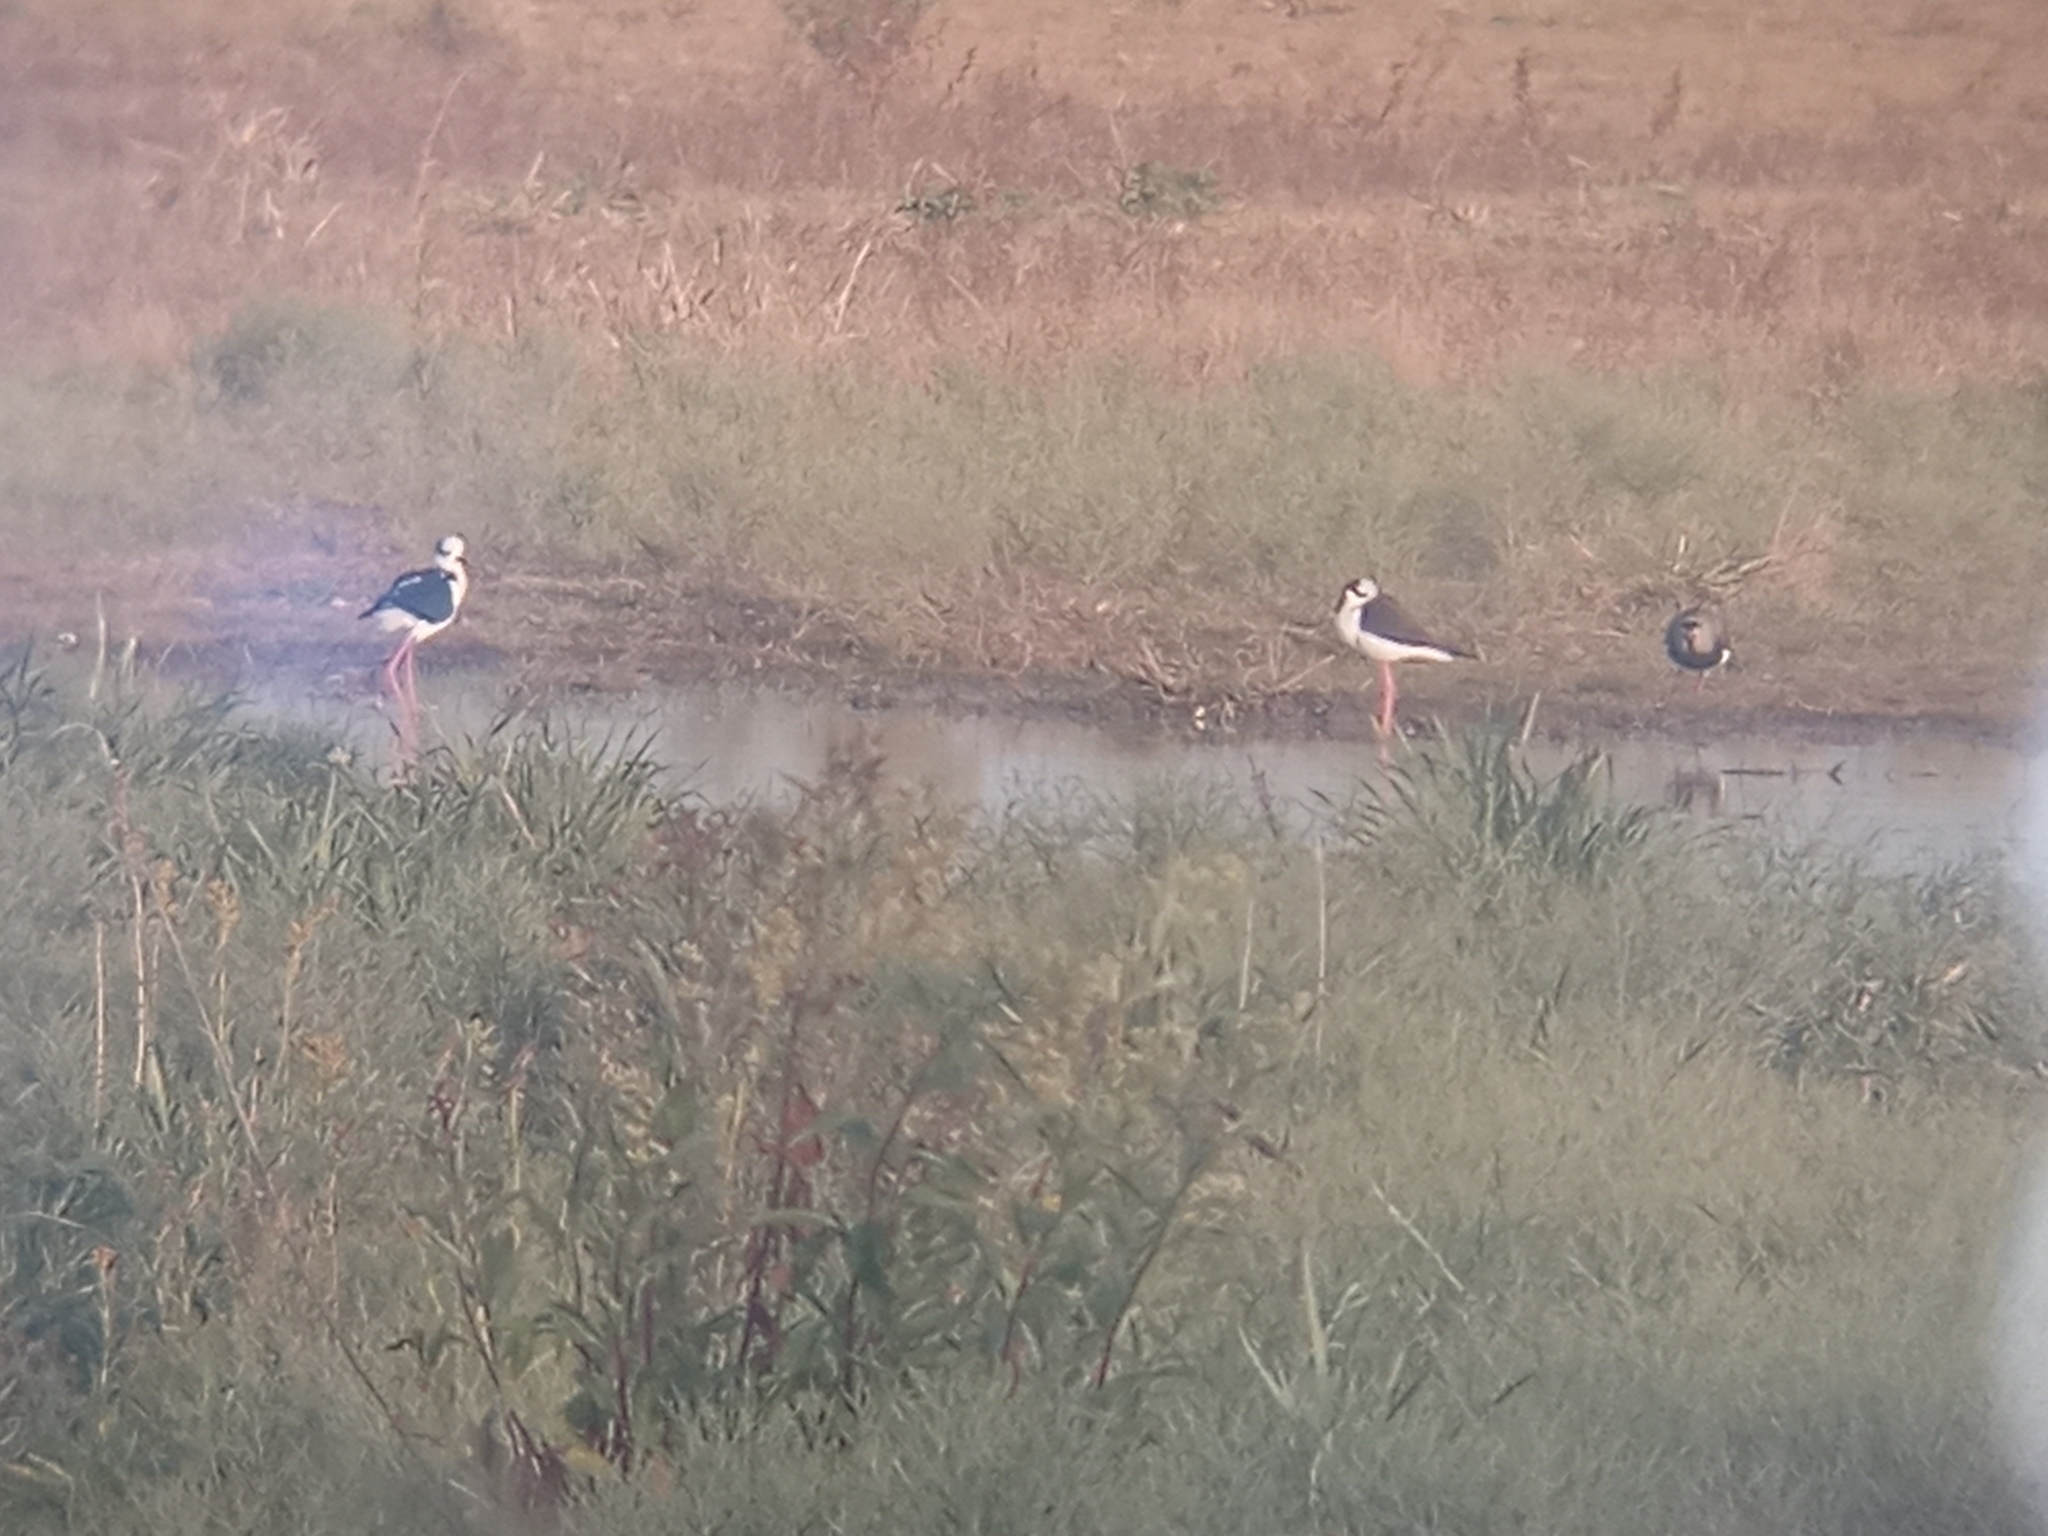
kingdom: Animalia
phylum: Chordata
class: Aves
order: Charadriiformes
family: Recurvirostridae
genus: Himantopus
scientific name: Himantopus mexicanus
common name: Black-necked stilt
